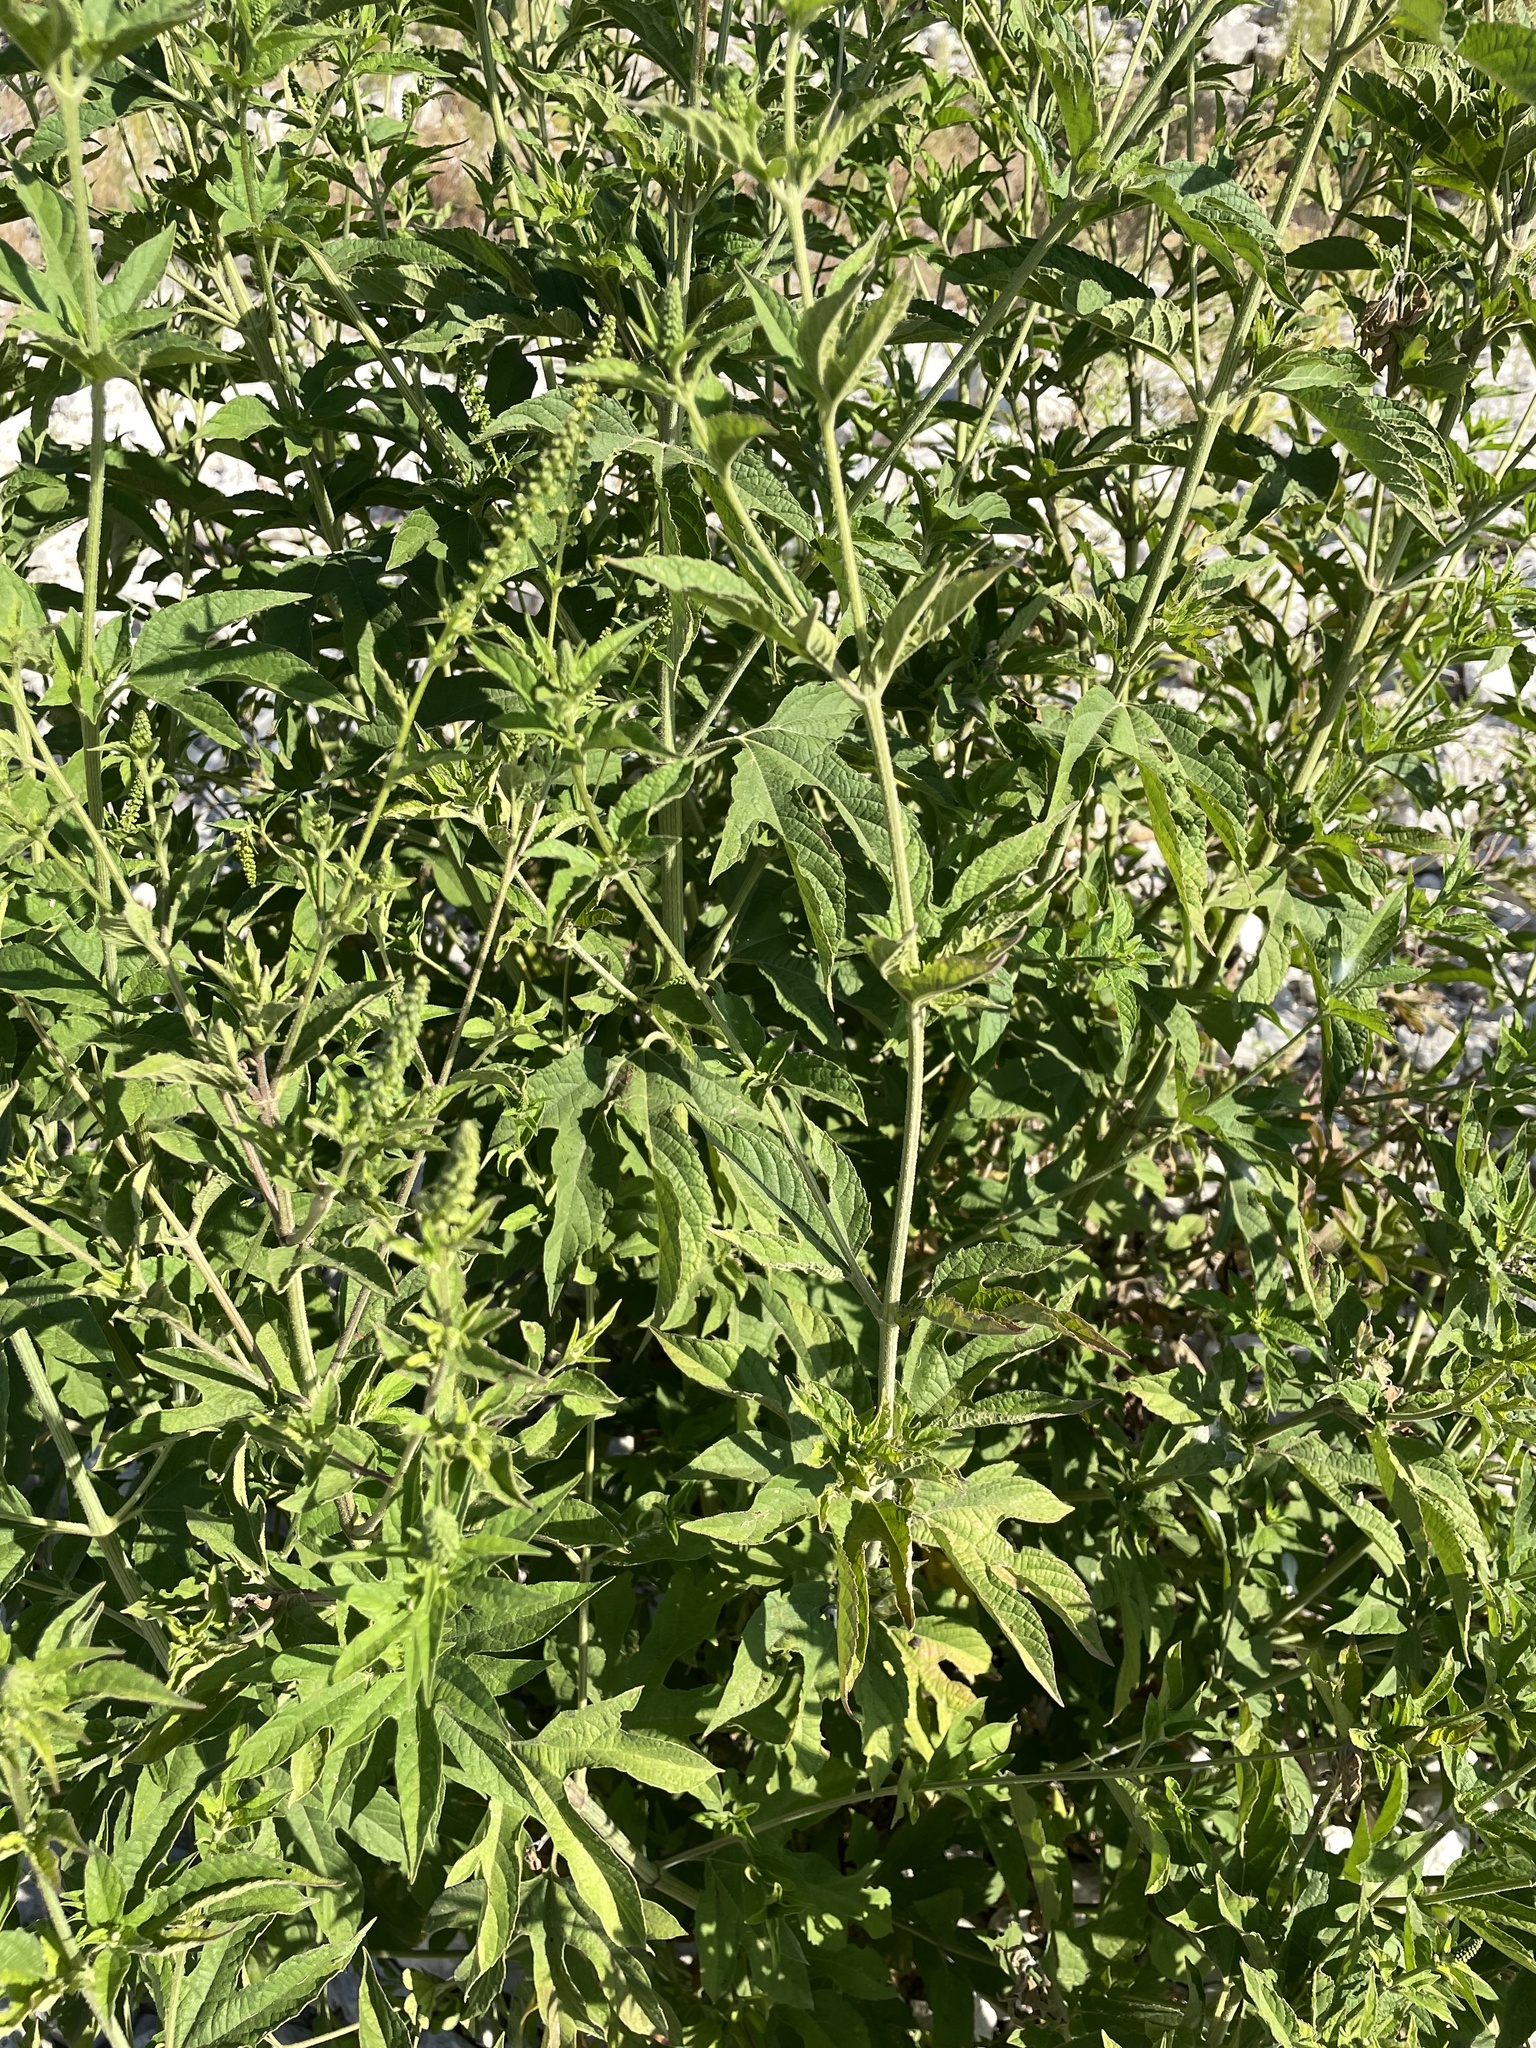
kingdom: Plantae
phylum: Tracheophyta
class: Magnoliopsida
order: Asterales
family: Asteraceae
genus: Ambrosia
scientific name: Ambrosia trifida
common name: Giant ragweed
